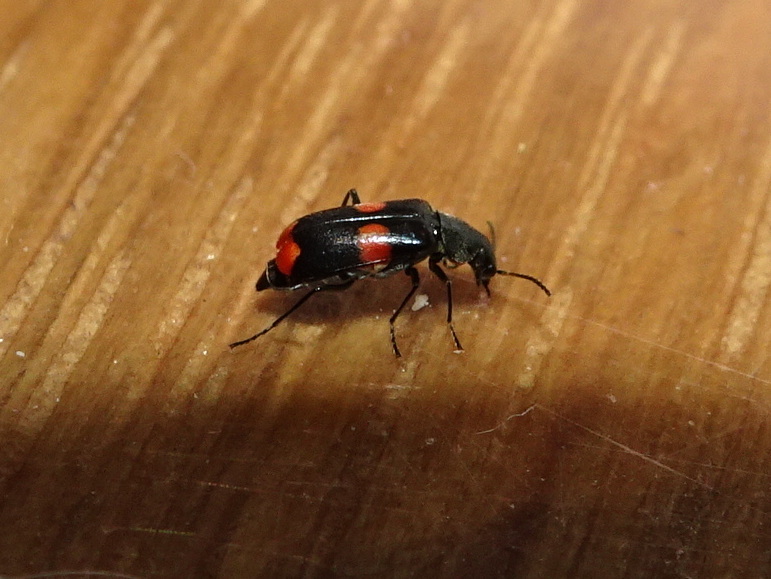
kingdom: Animalia
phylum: Arthropoda
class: Insecta
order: Coleoptera
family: Melyridae
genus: Anthocomus
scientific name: Anthocomus fasciatus
